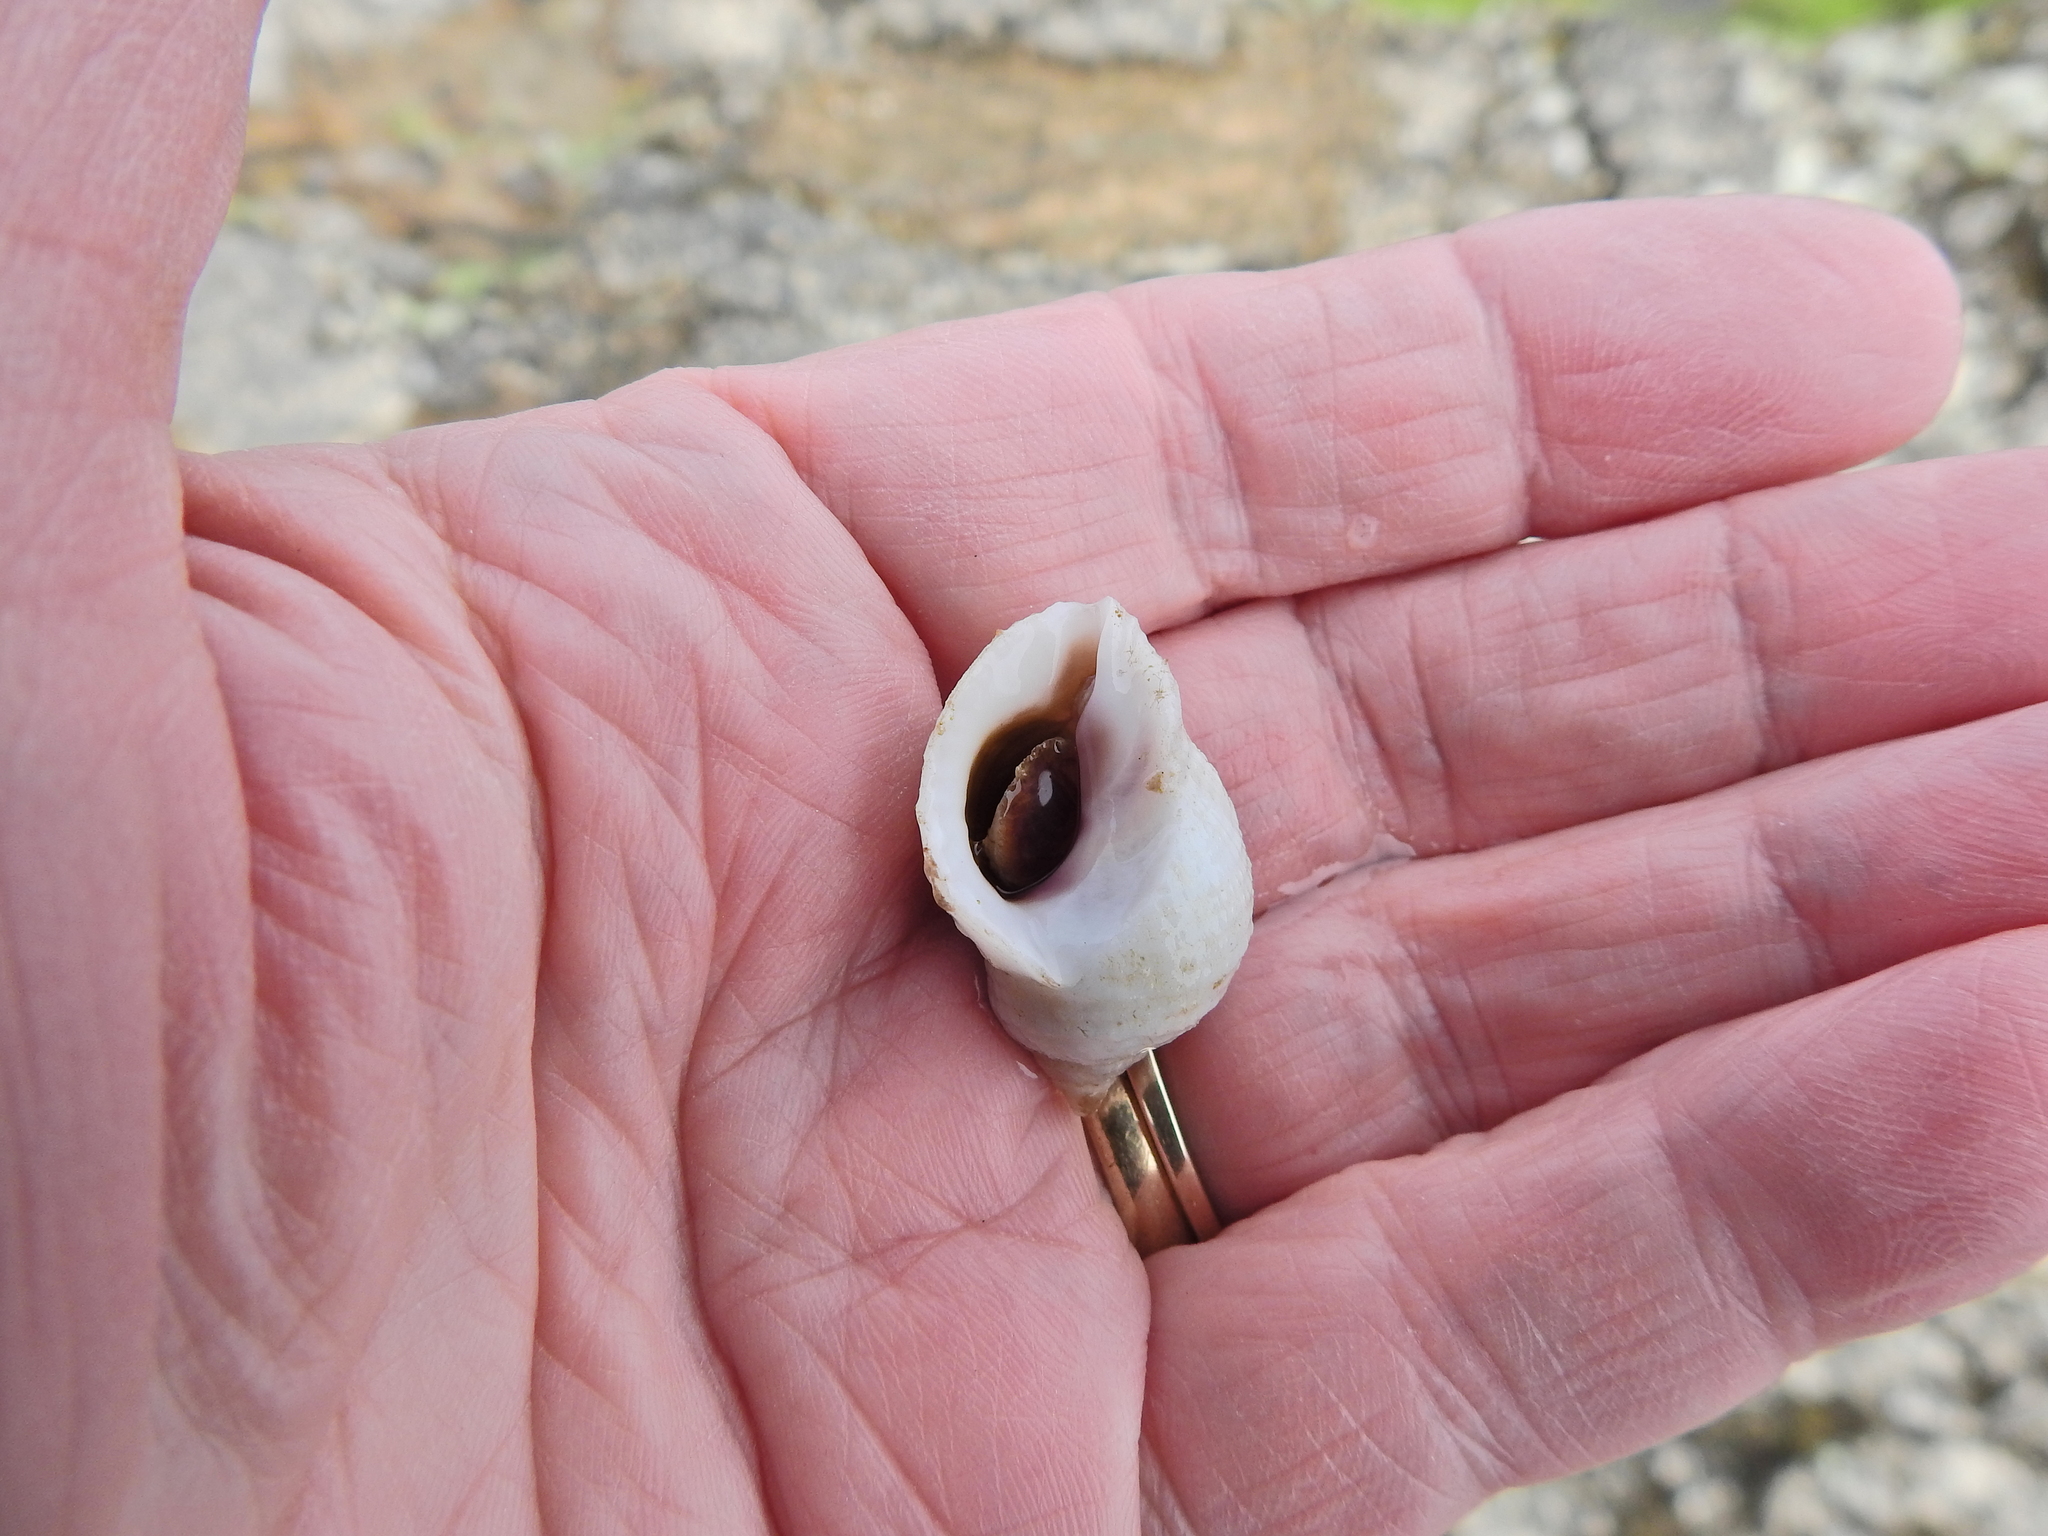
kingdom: Animalia
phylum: Mollusca
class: Gastropoda
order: Neogastropoda
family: Muricidae
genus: Nucella
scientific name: Nucella lapillus
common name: Dog whelk
